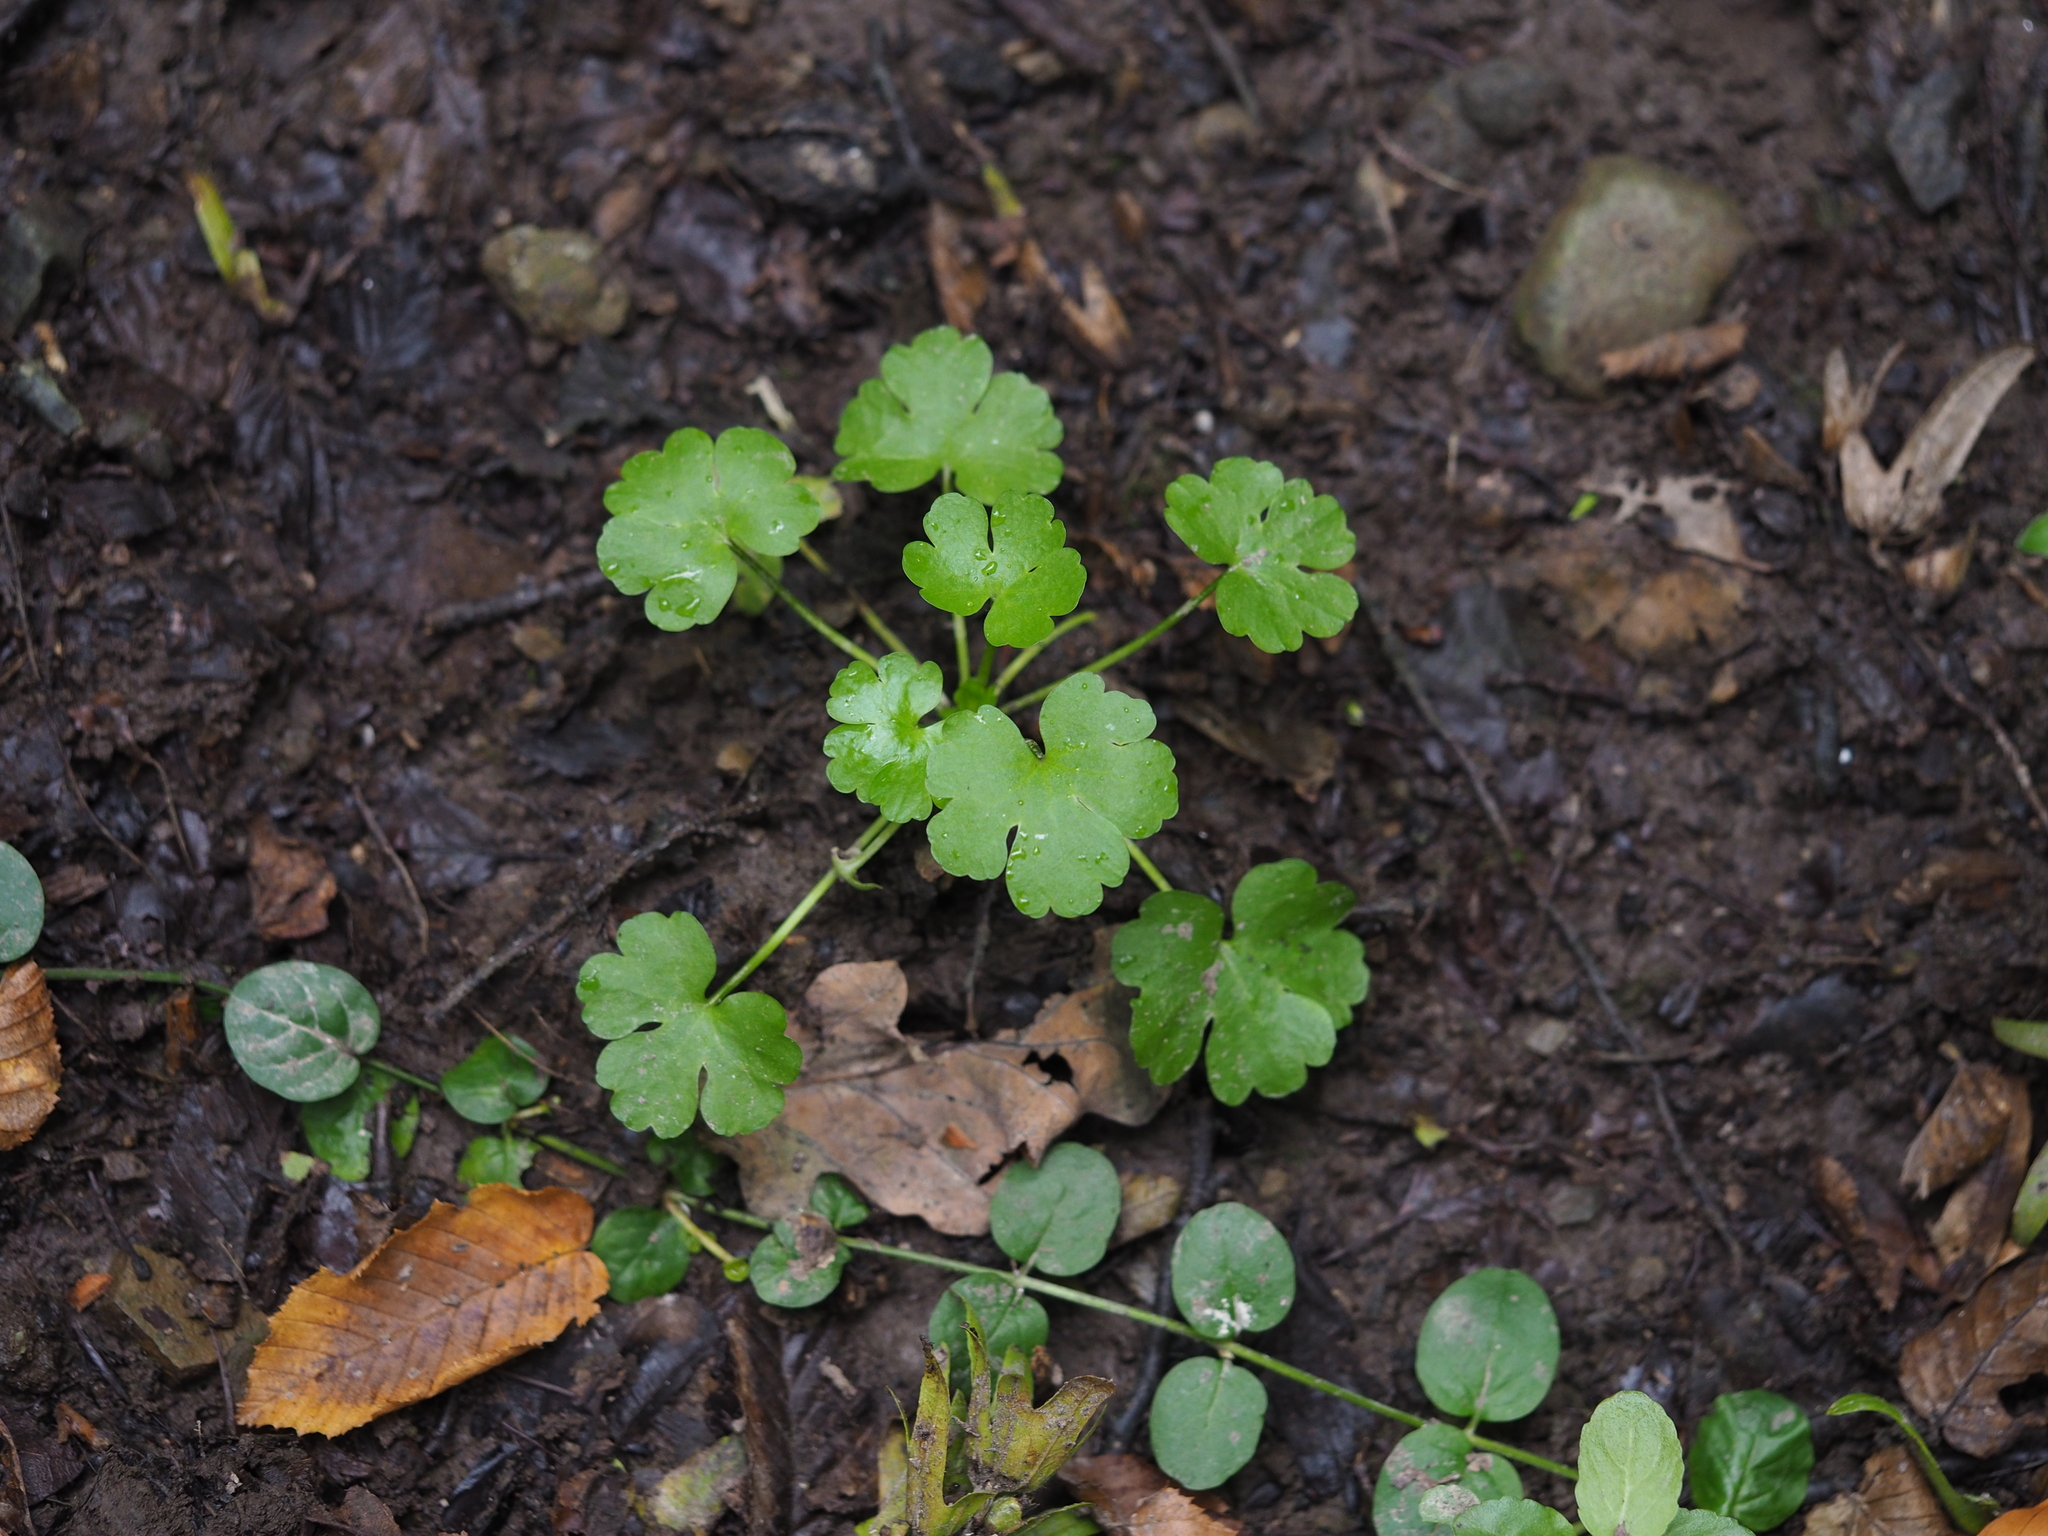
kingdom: Plantae
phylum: Tracheophyta
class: Magnoliopsida
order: Ranunculales
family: Ranunculaceae
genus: Ranunculus
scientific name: Ranunculus sceleratus
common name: Celery-leaved buttercup
